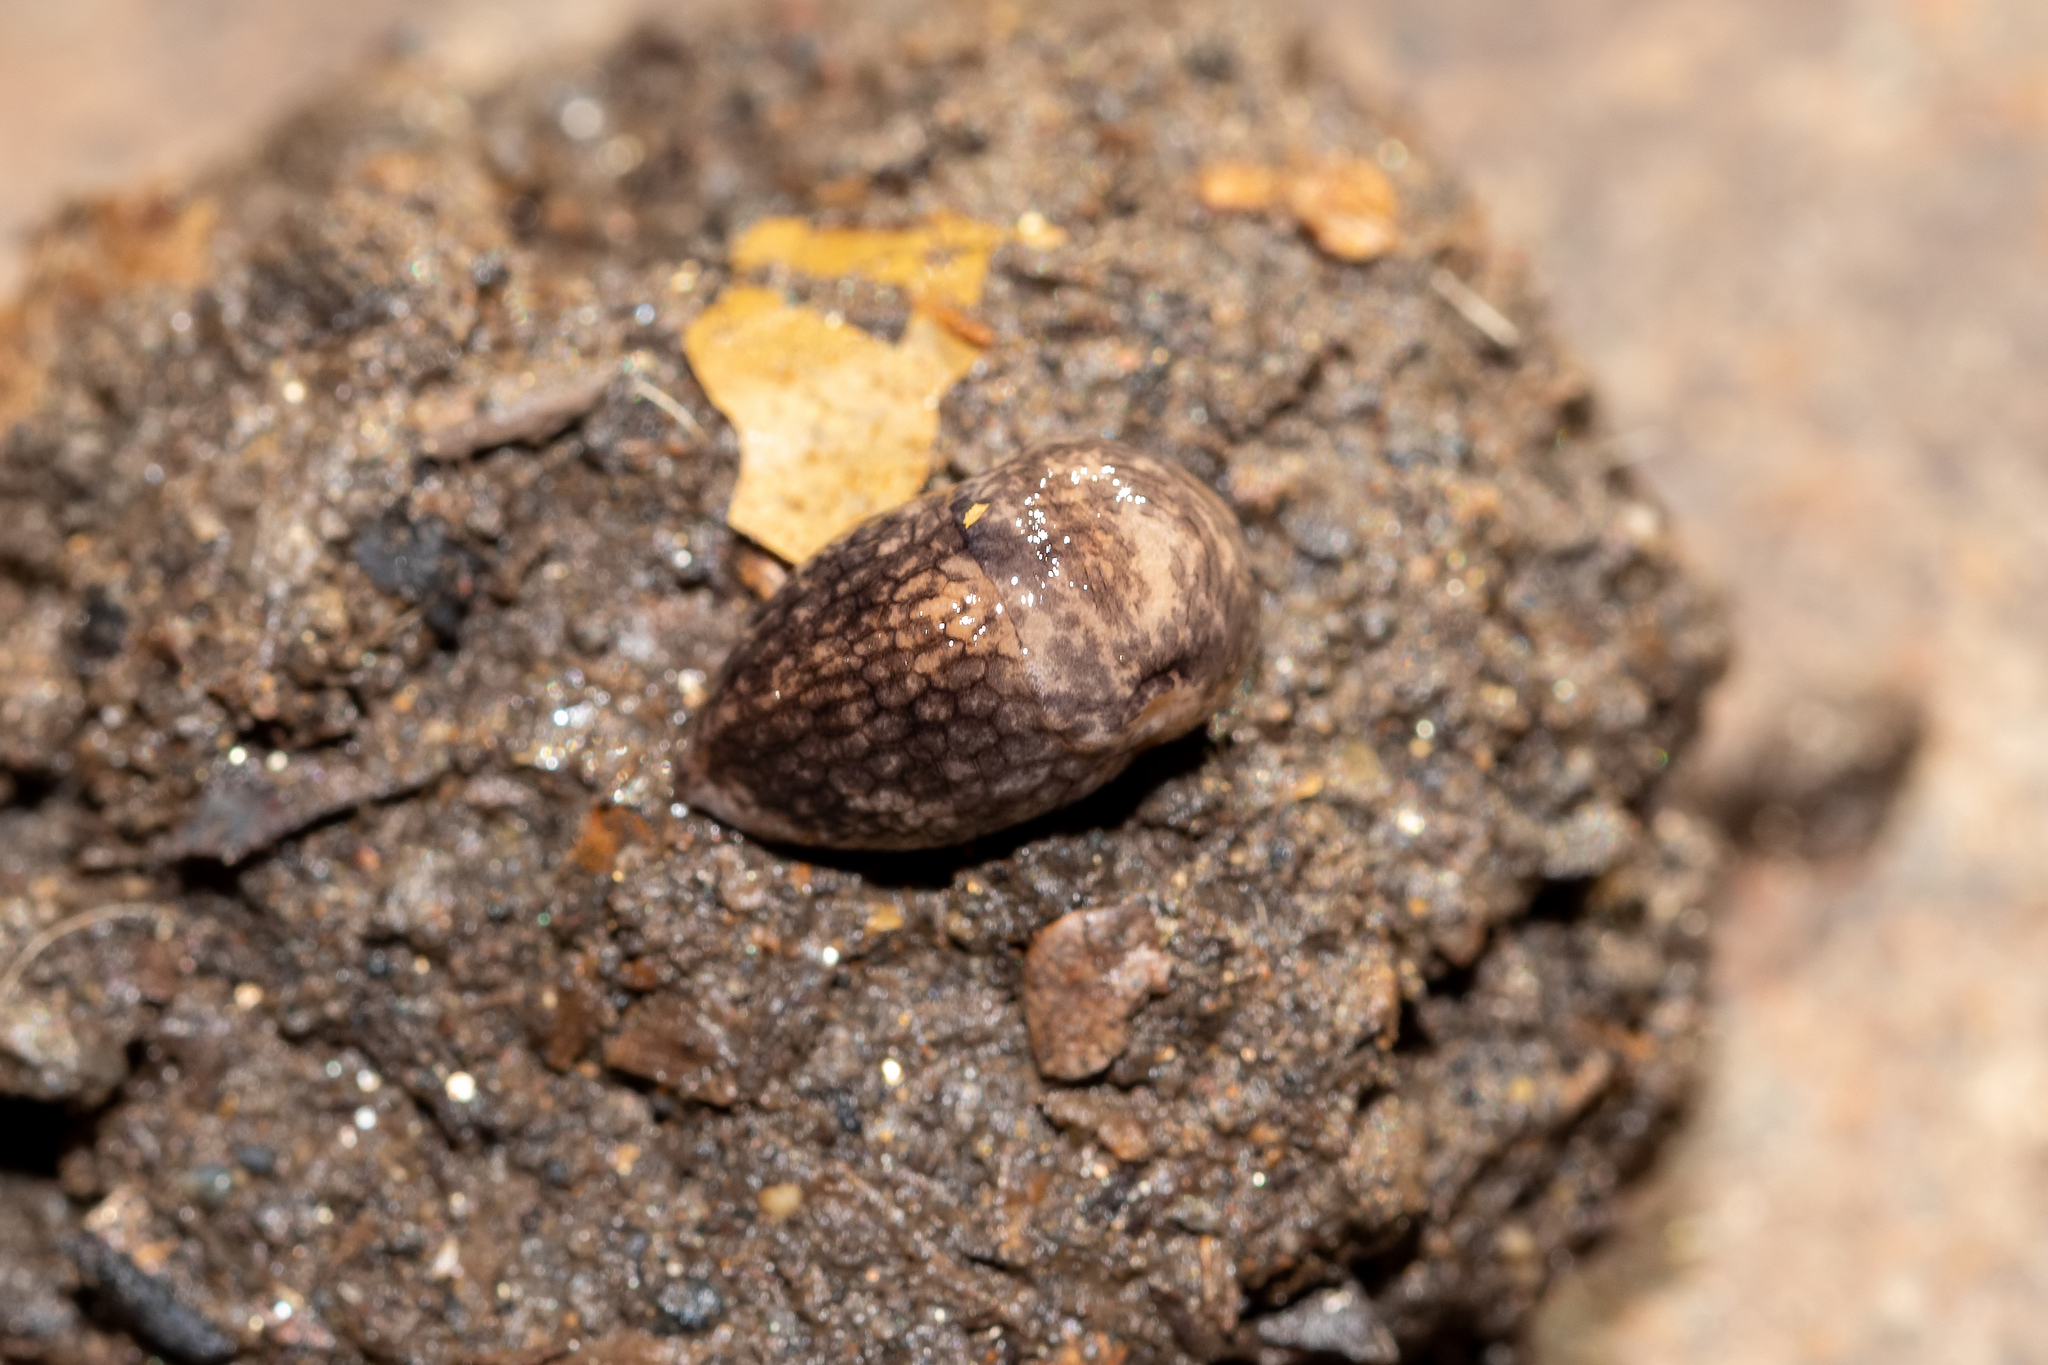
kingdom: Animalia
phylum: Mollusca
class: Gastropoda
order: Stylommatophora
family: Agriolimacidae
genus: Deroceras
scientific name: Deroceras reticulatum
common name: Gray field slug
